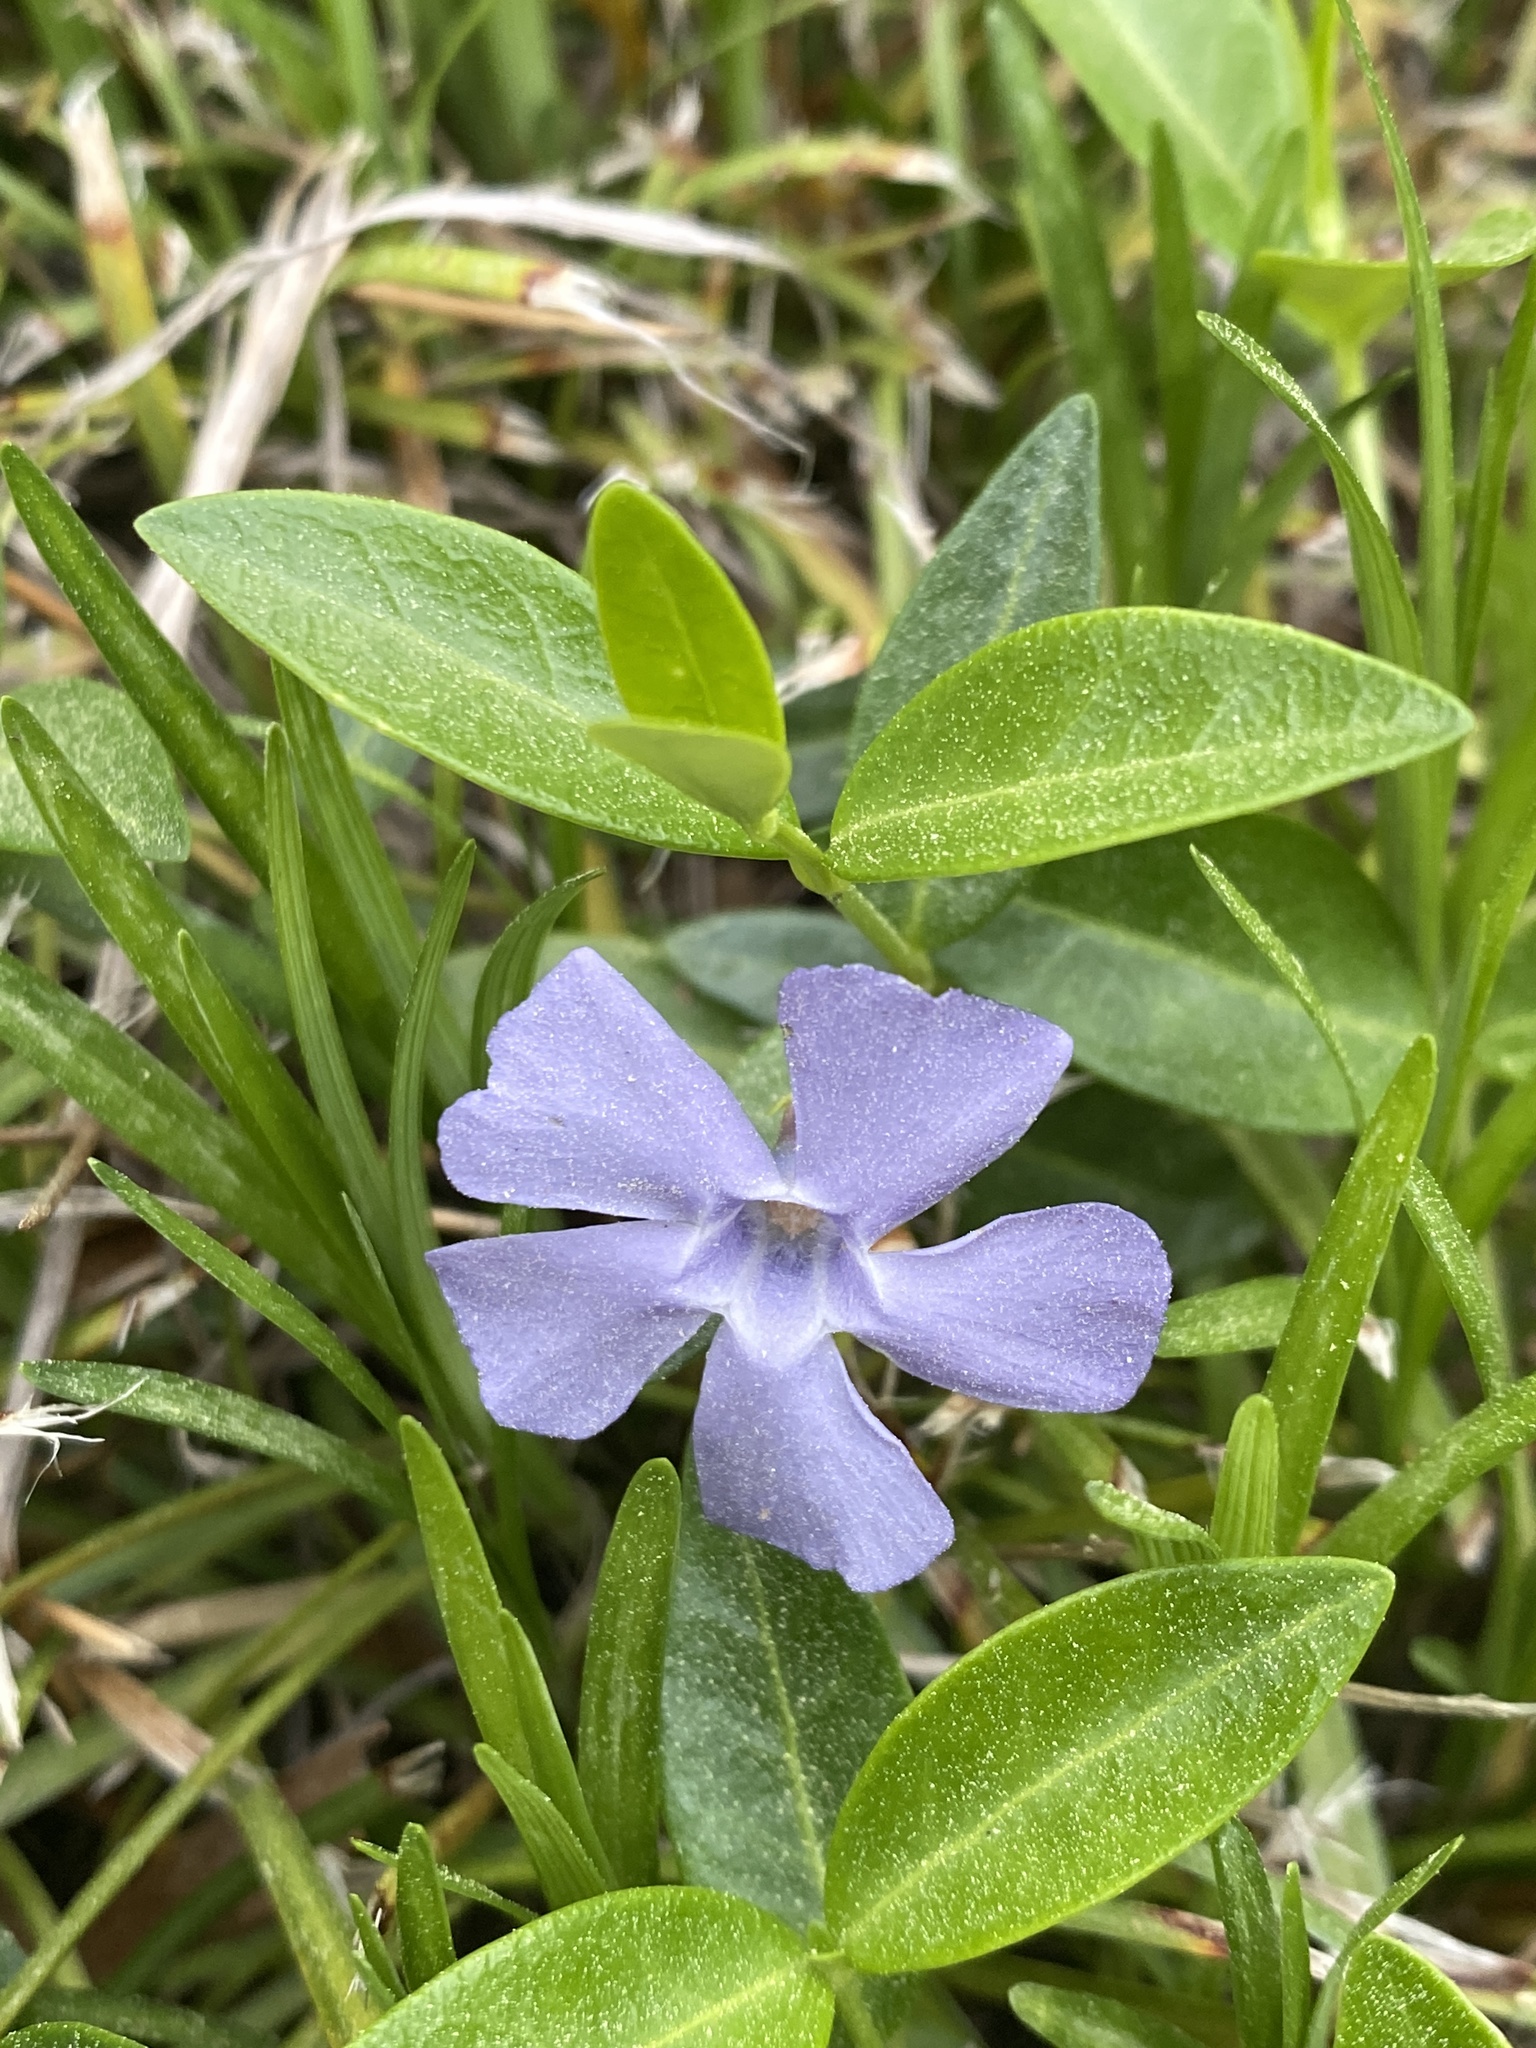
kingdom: Plantae
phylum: Tracheophyta
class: Magnoliopsida
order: Gentianales
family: Apocynaceae
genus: Vinca
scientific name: Vinca minor
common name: Lesser periwinkle
